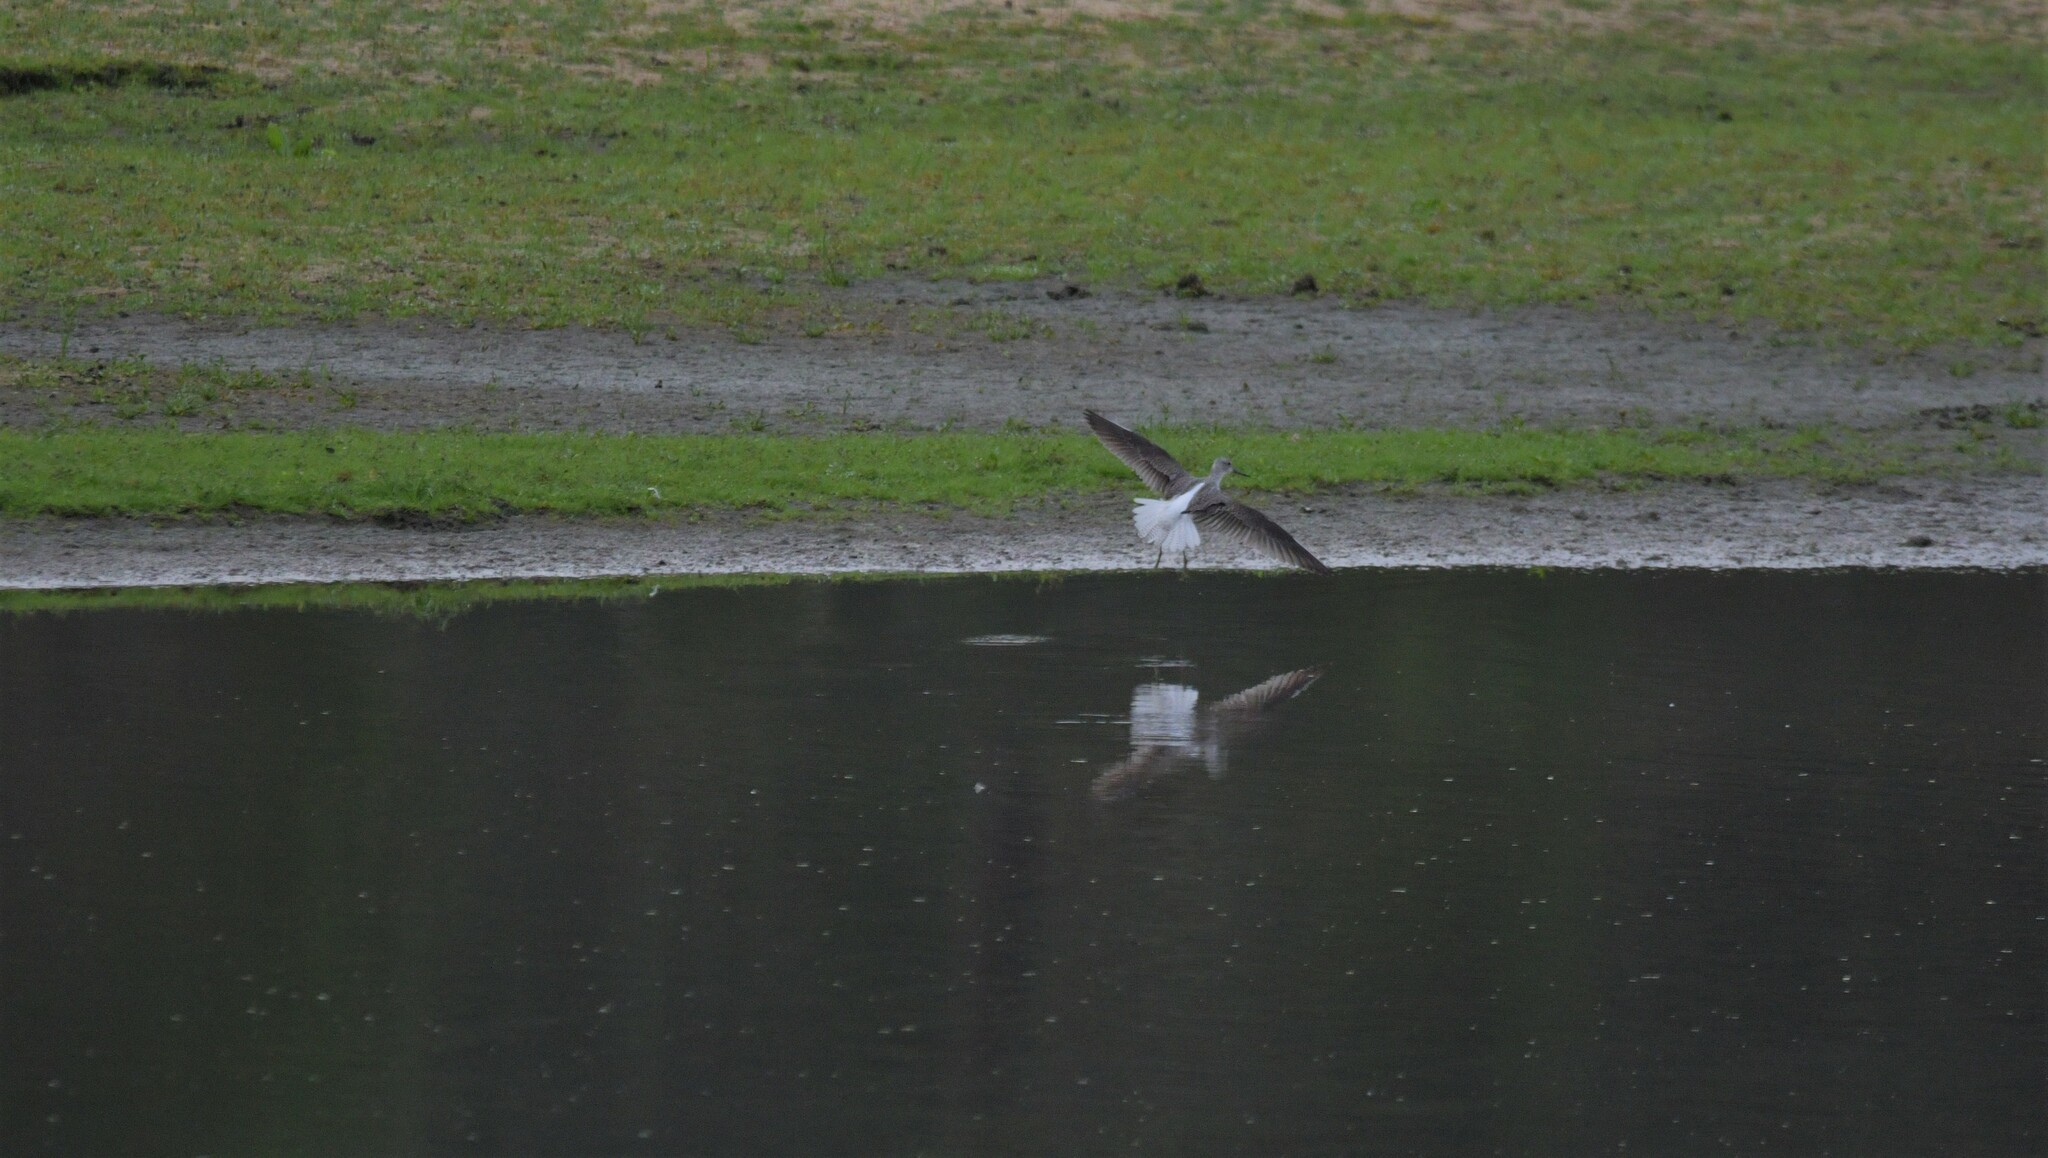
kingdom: Animalia
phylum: Chordata
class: Aves
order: Charadriiformes
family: Scolopacidae
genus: Tringa
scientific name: Tringa nebularia
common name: Common greenshank
